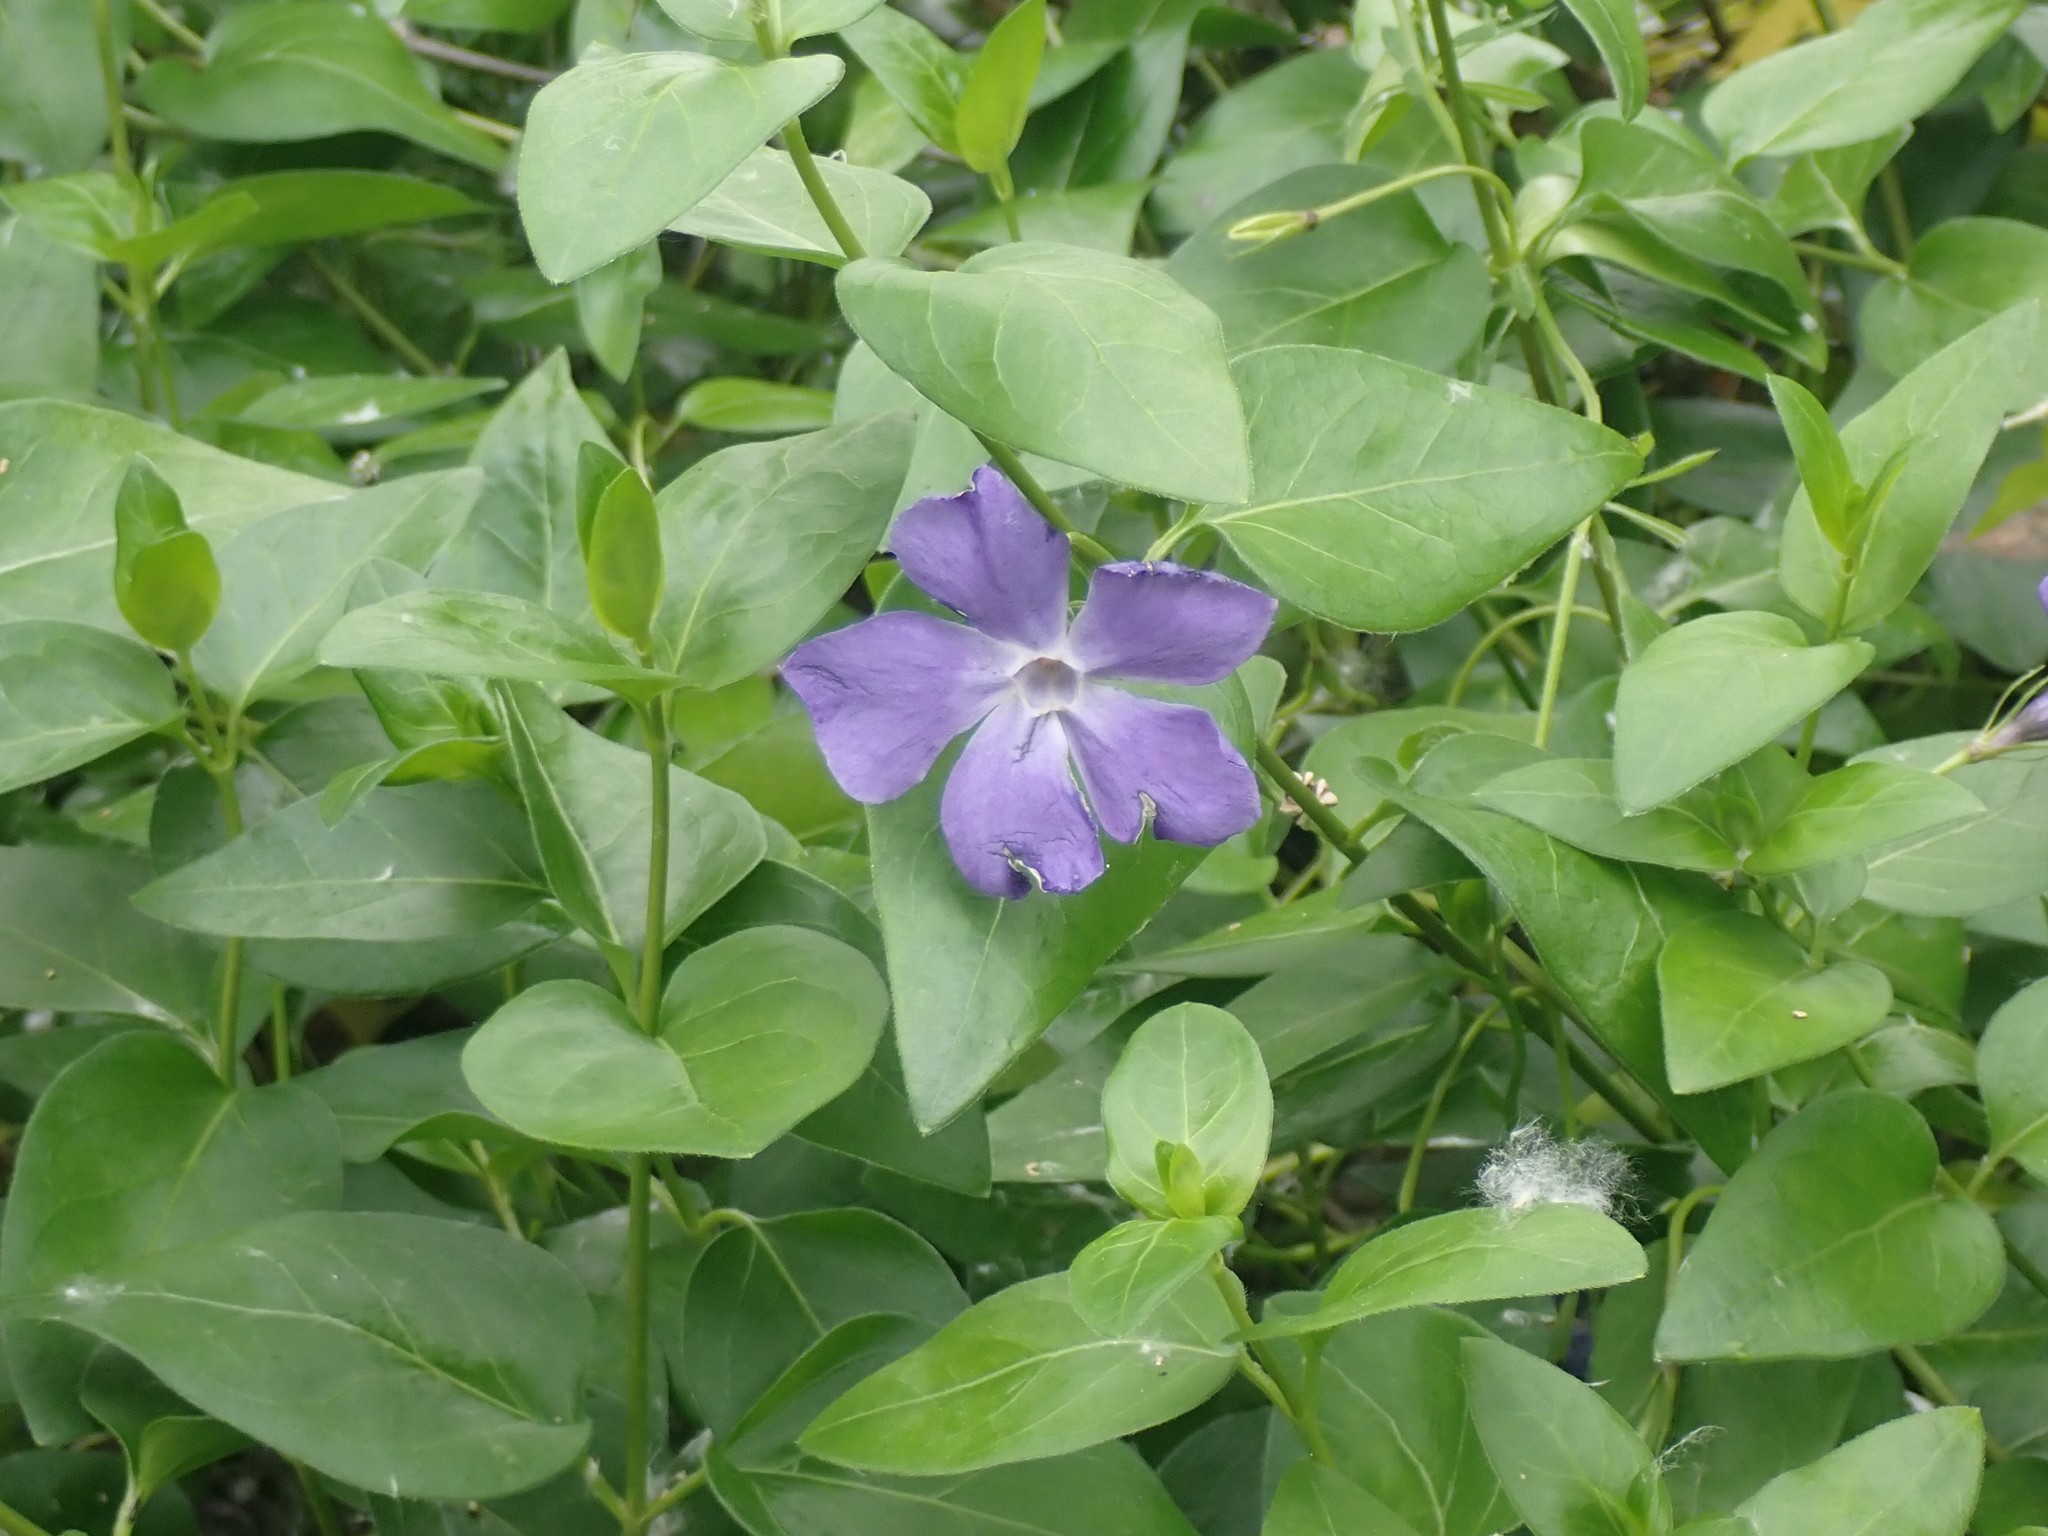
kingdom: Plantae
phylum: Tracheophyta
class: Magnoliopsida
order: Gentianales
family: Apocynaceae
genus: Vinca
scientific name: Vinca major
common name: Greater periwinkle
